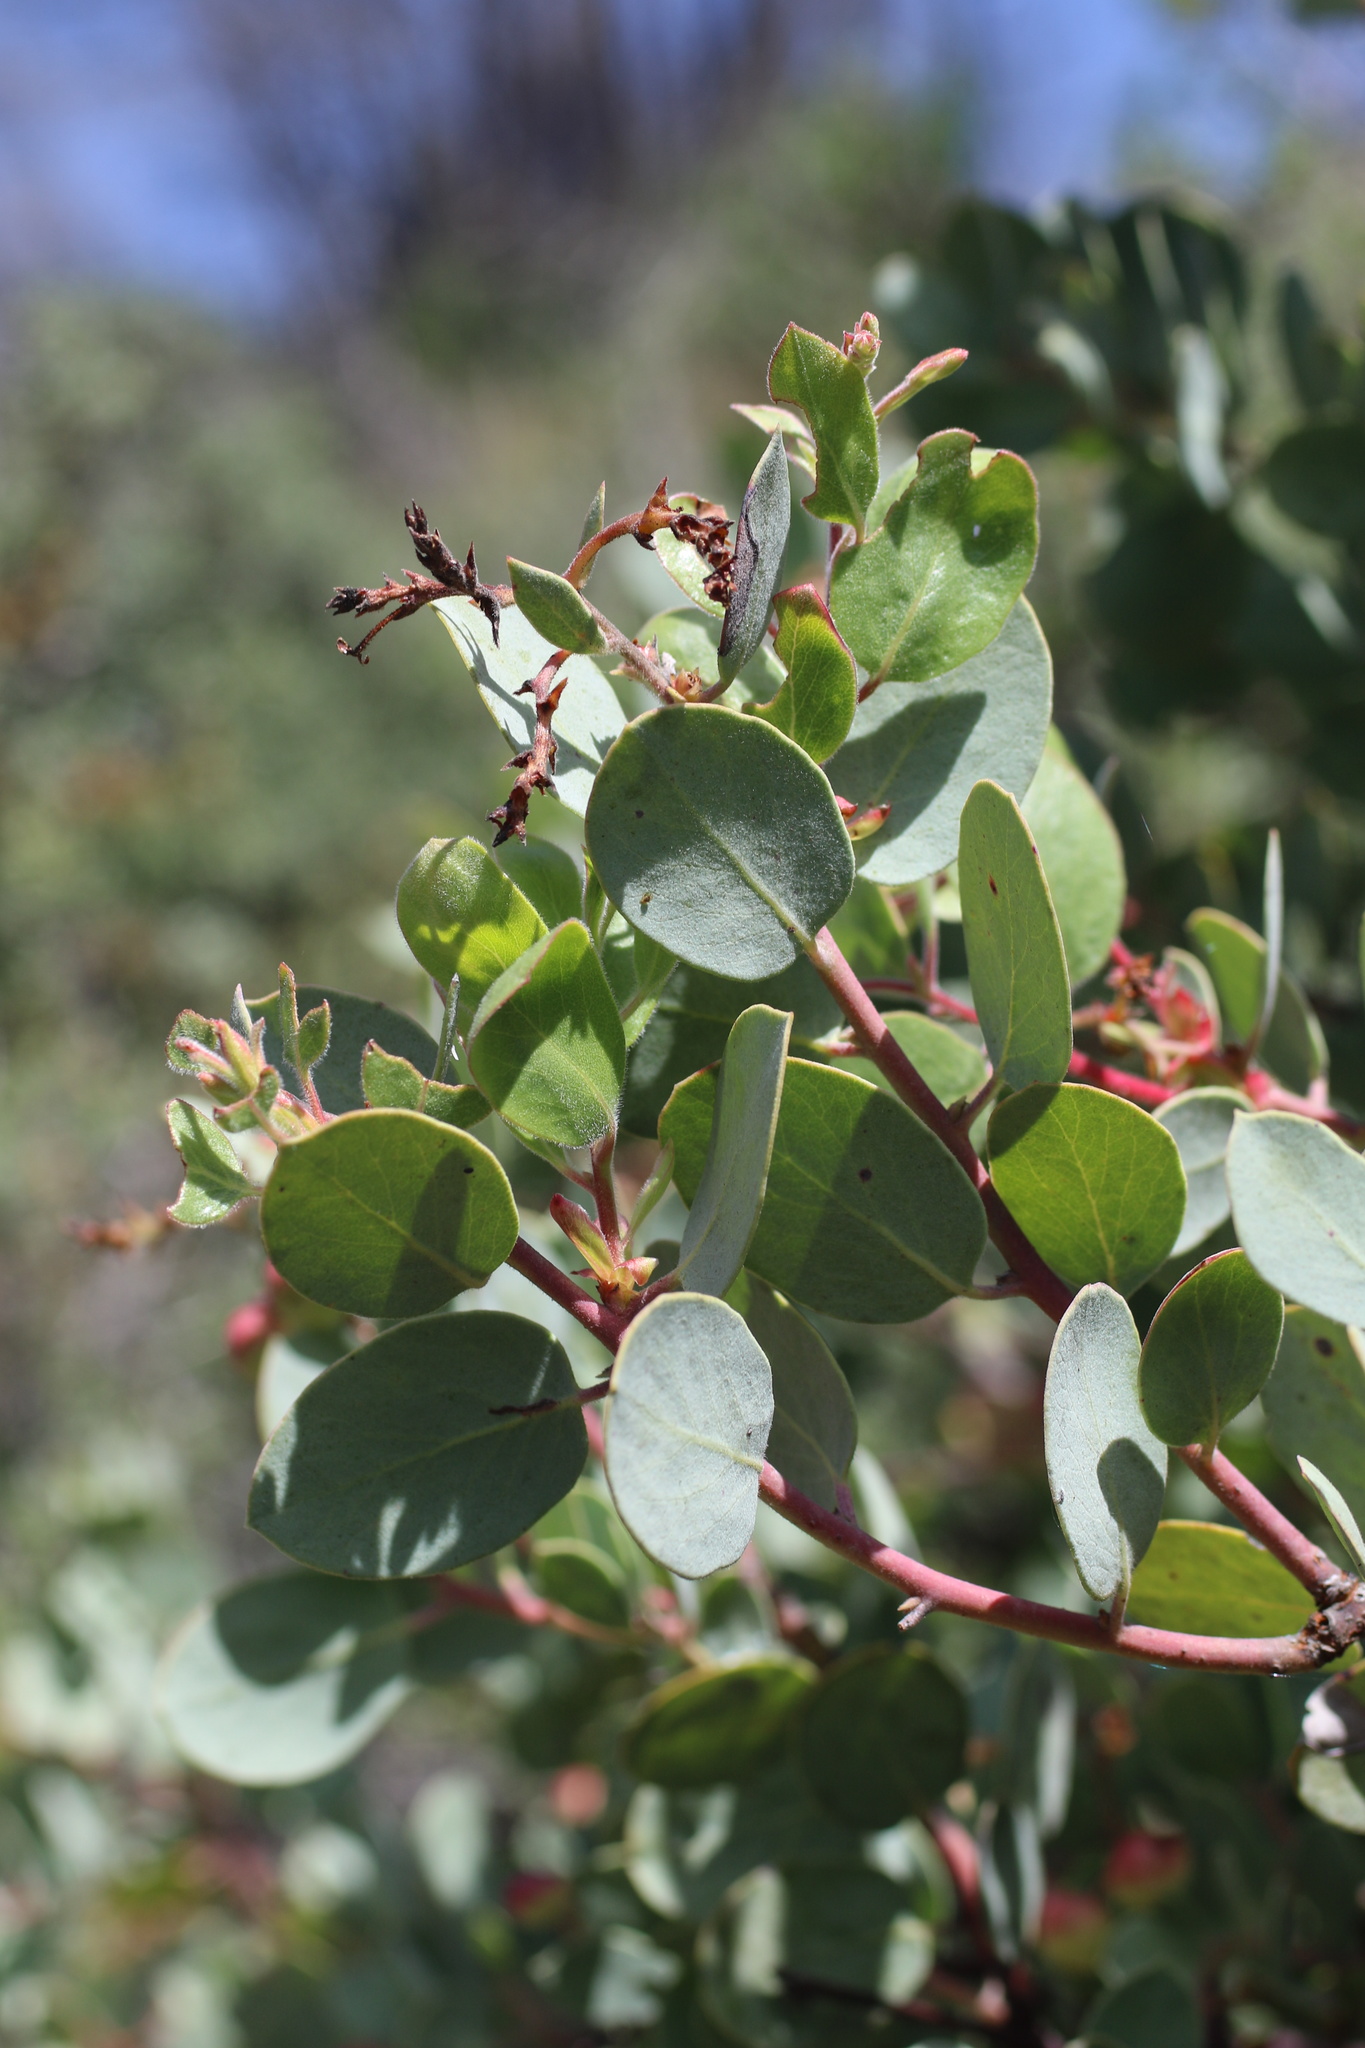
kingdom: Plantae
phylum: Tracheophyta
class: Magnoliopsida
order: Ericales
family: Ericaceae
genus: Arctostaphylos
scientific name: Arctostaphylos viscida
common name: White-leaf manzanita
